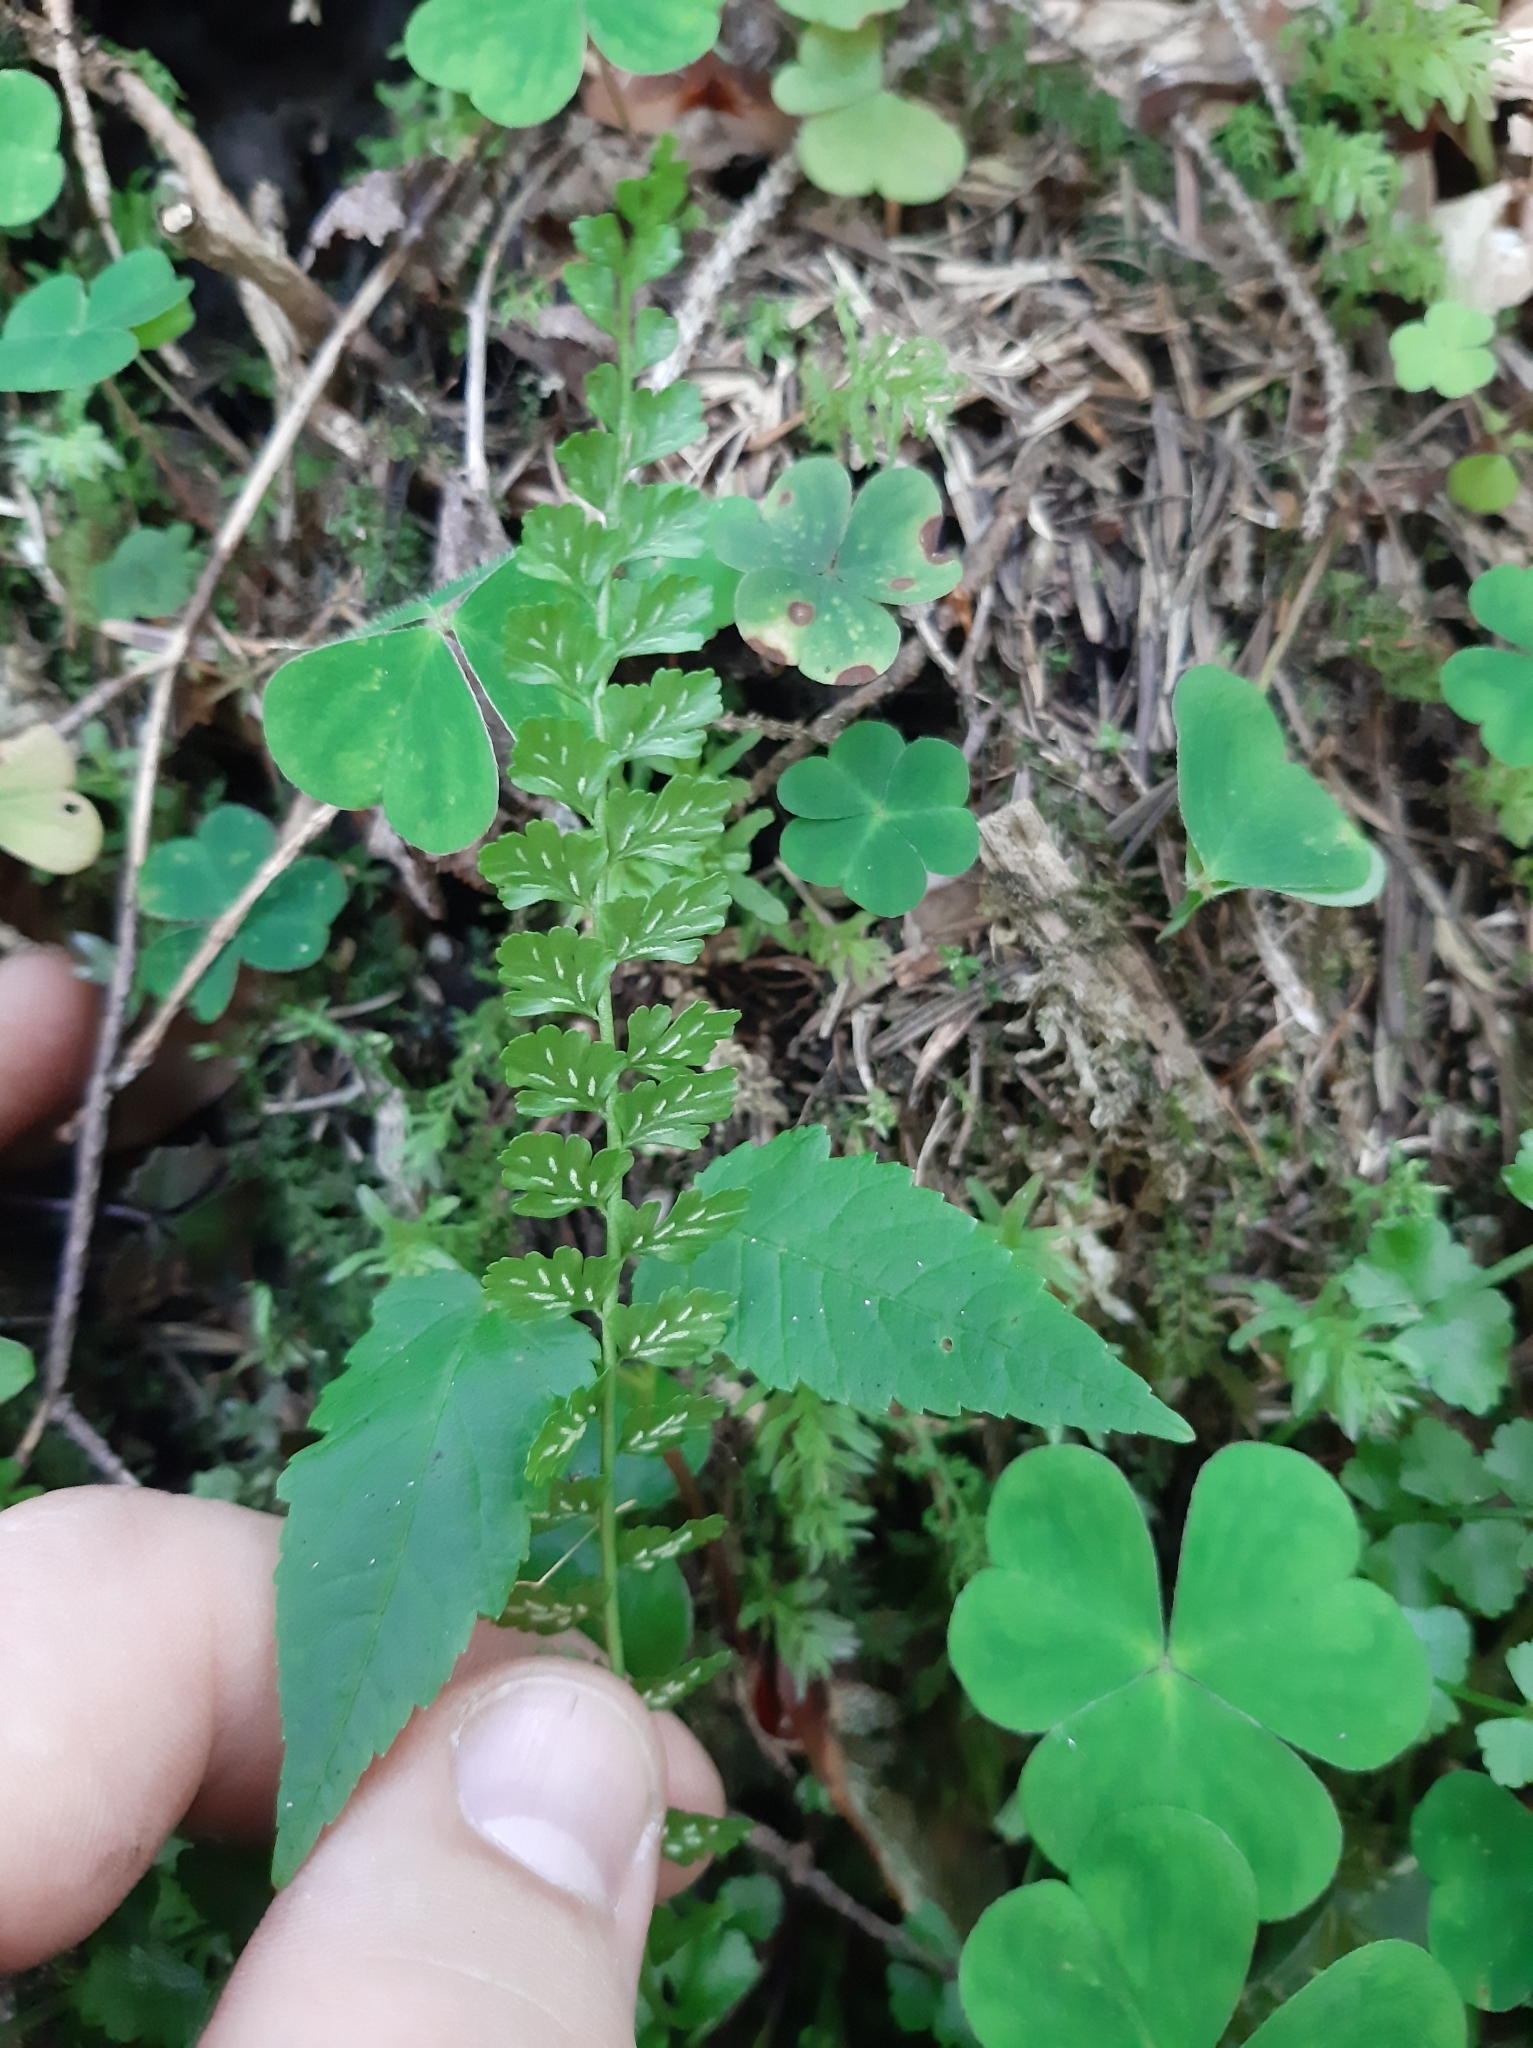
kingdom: Plantae
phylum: Tracheophyta
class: Polypodiopsida
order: Polypodiales
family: Aspleniaceae
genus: Asplenium
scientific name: Asplenium viride
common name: Green spleenwort
